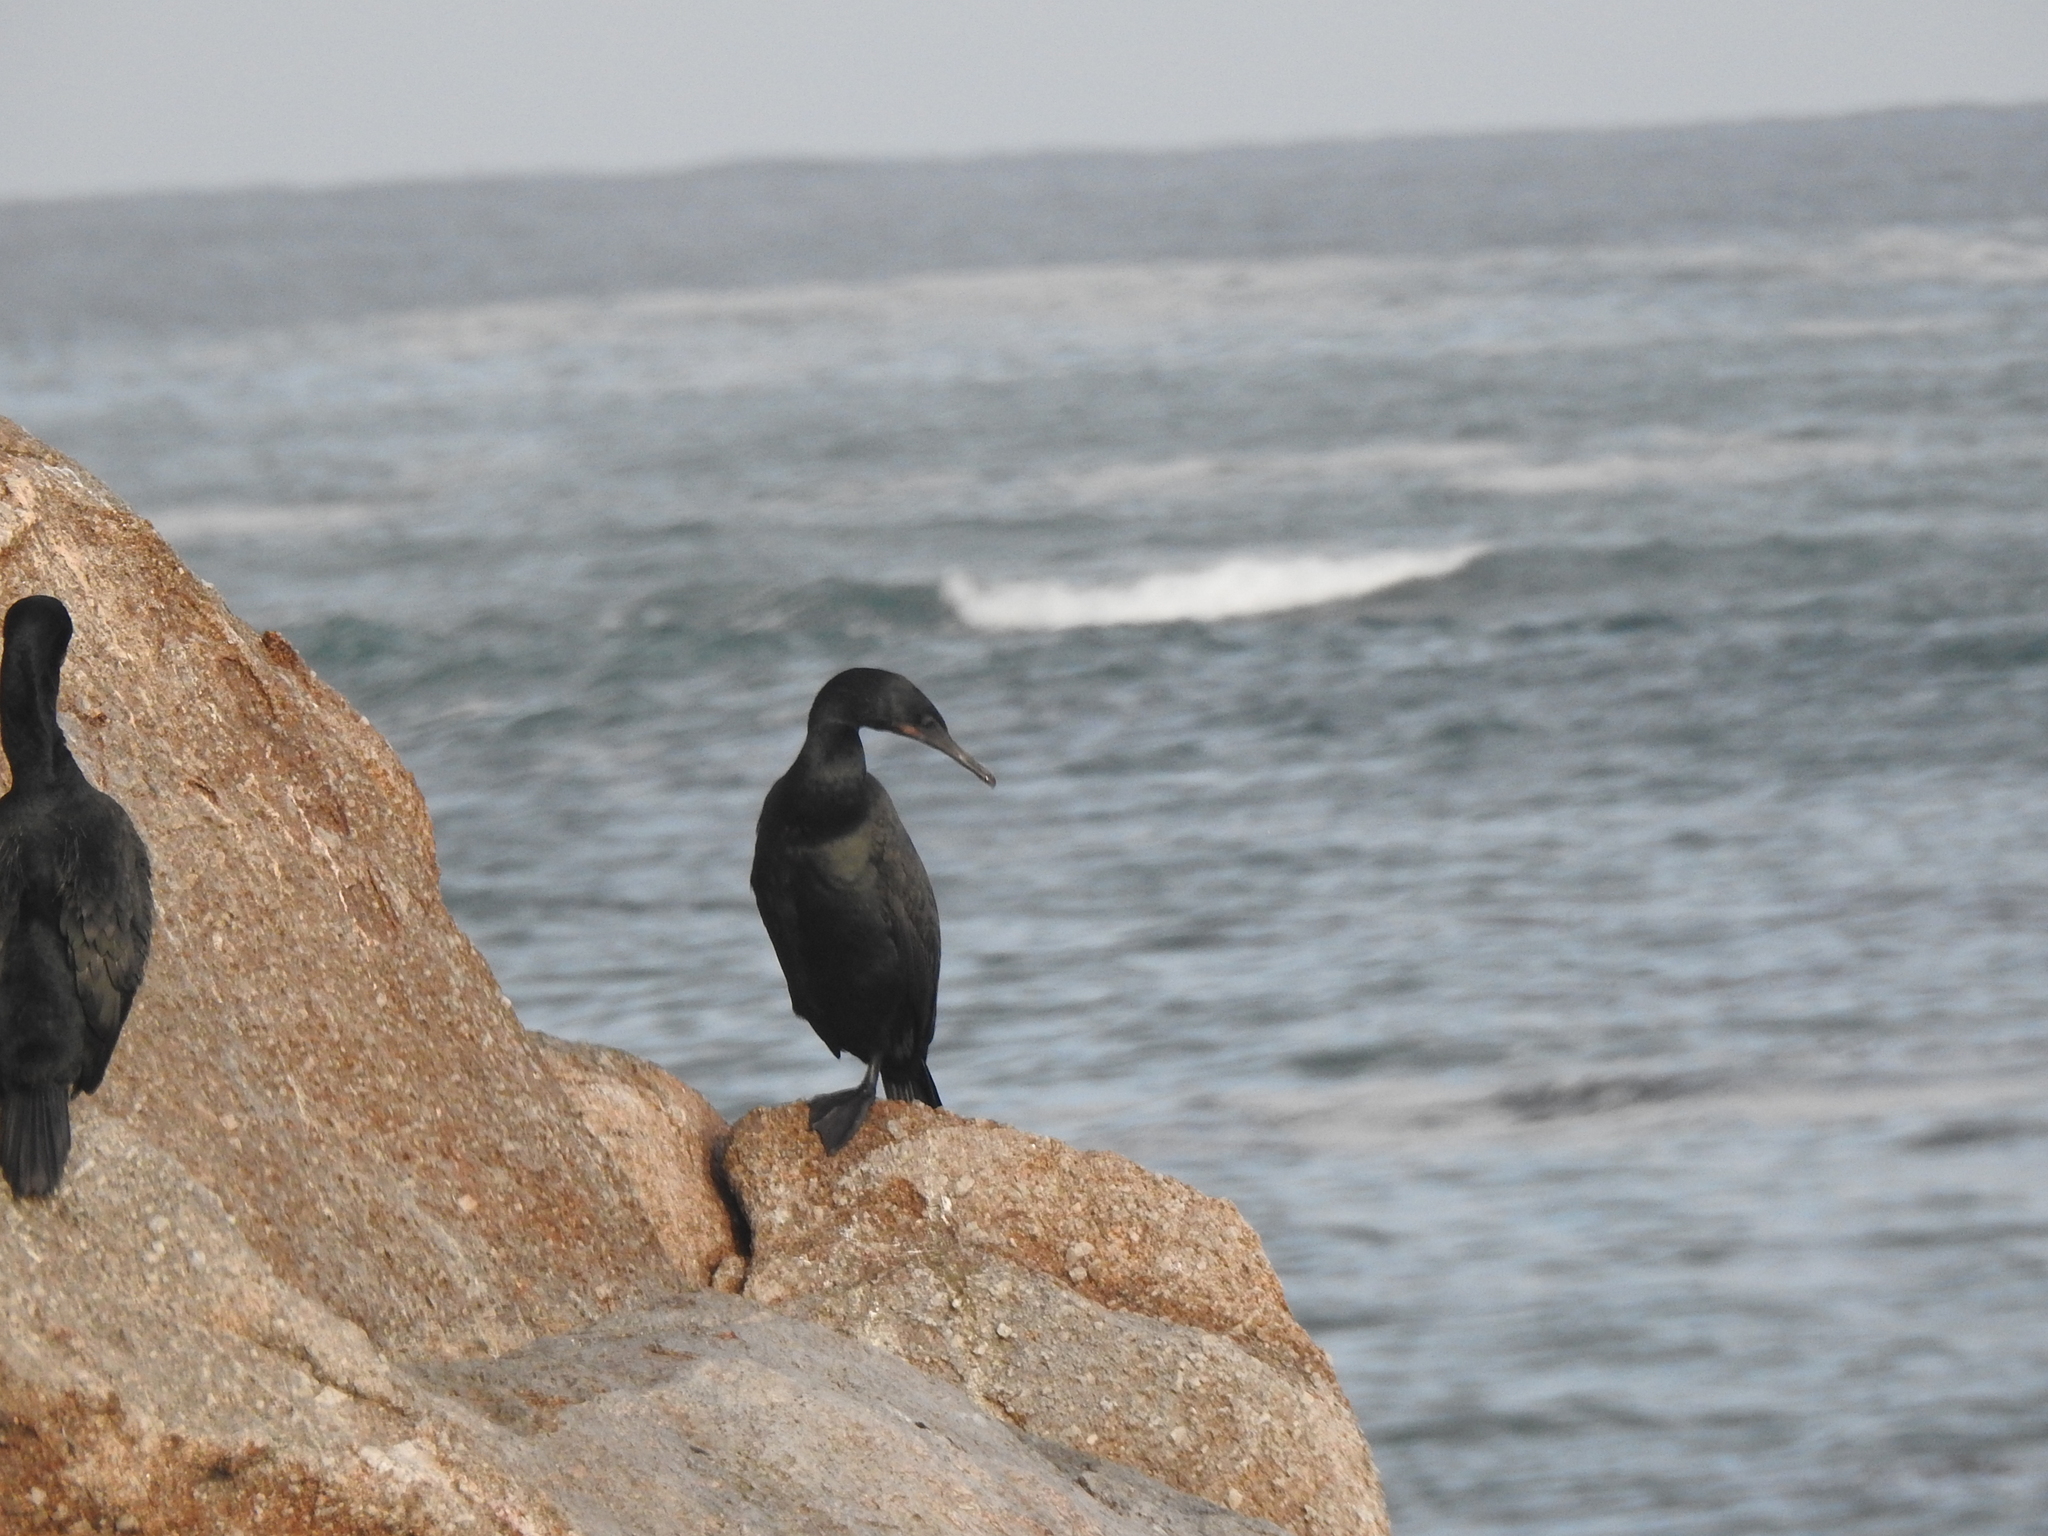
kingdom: Animalia
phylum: Chordata
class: Aves
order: Suliformes
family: Phalacrocoracidae
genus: Urile
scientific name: Urile penicillatus
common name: Brandt's cormorant
